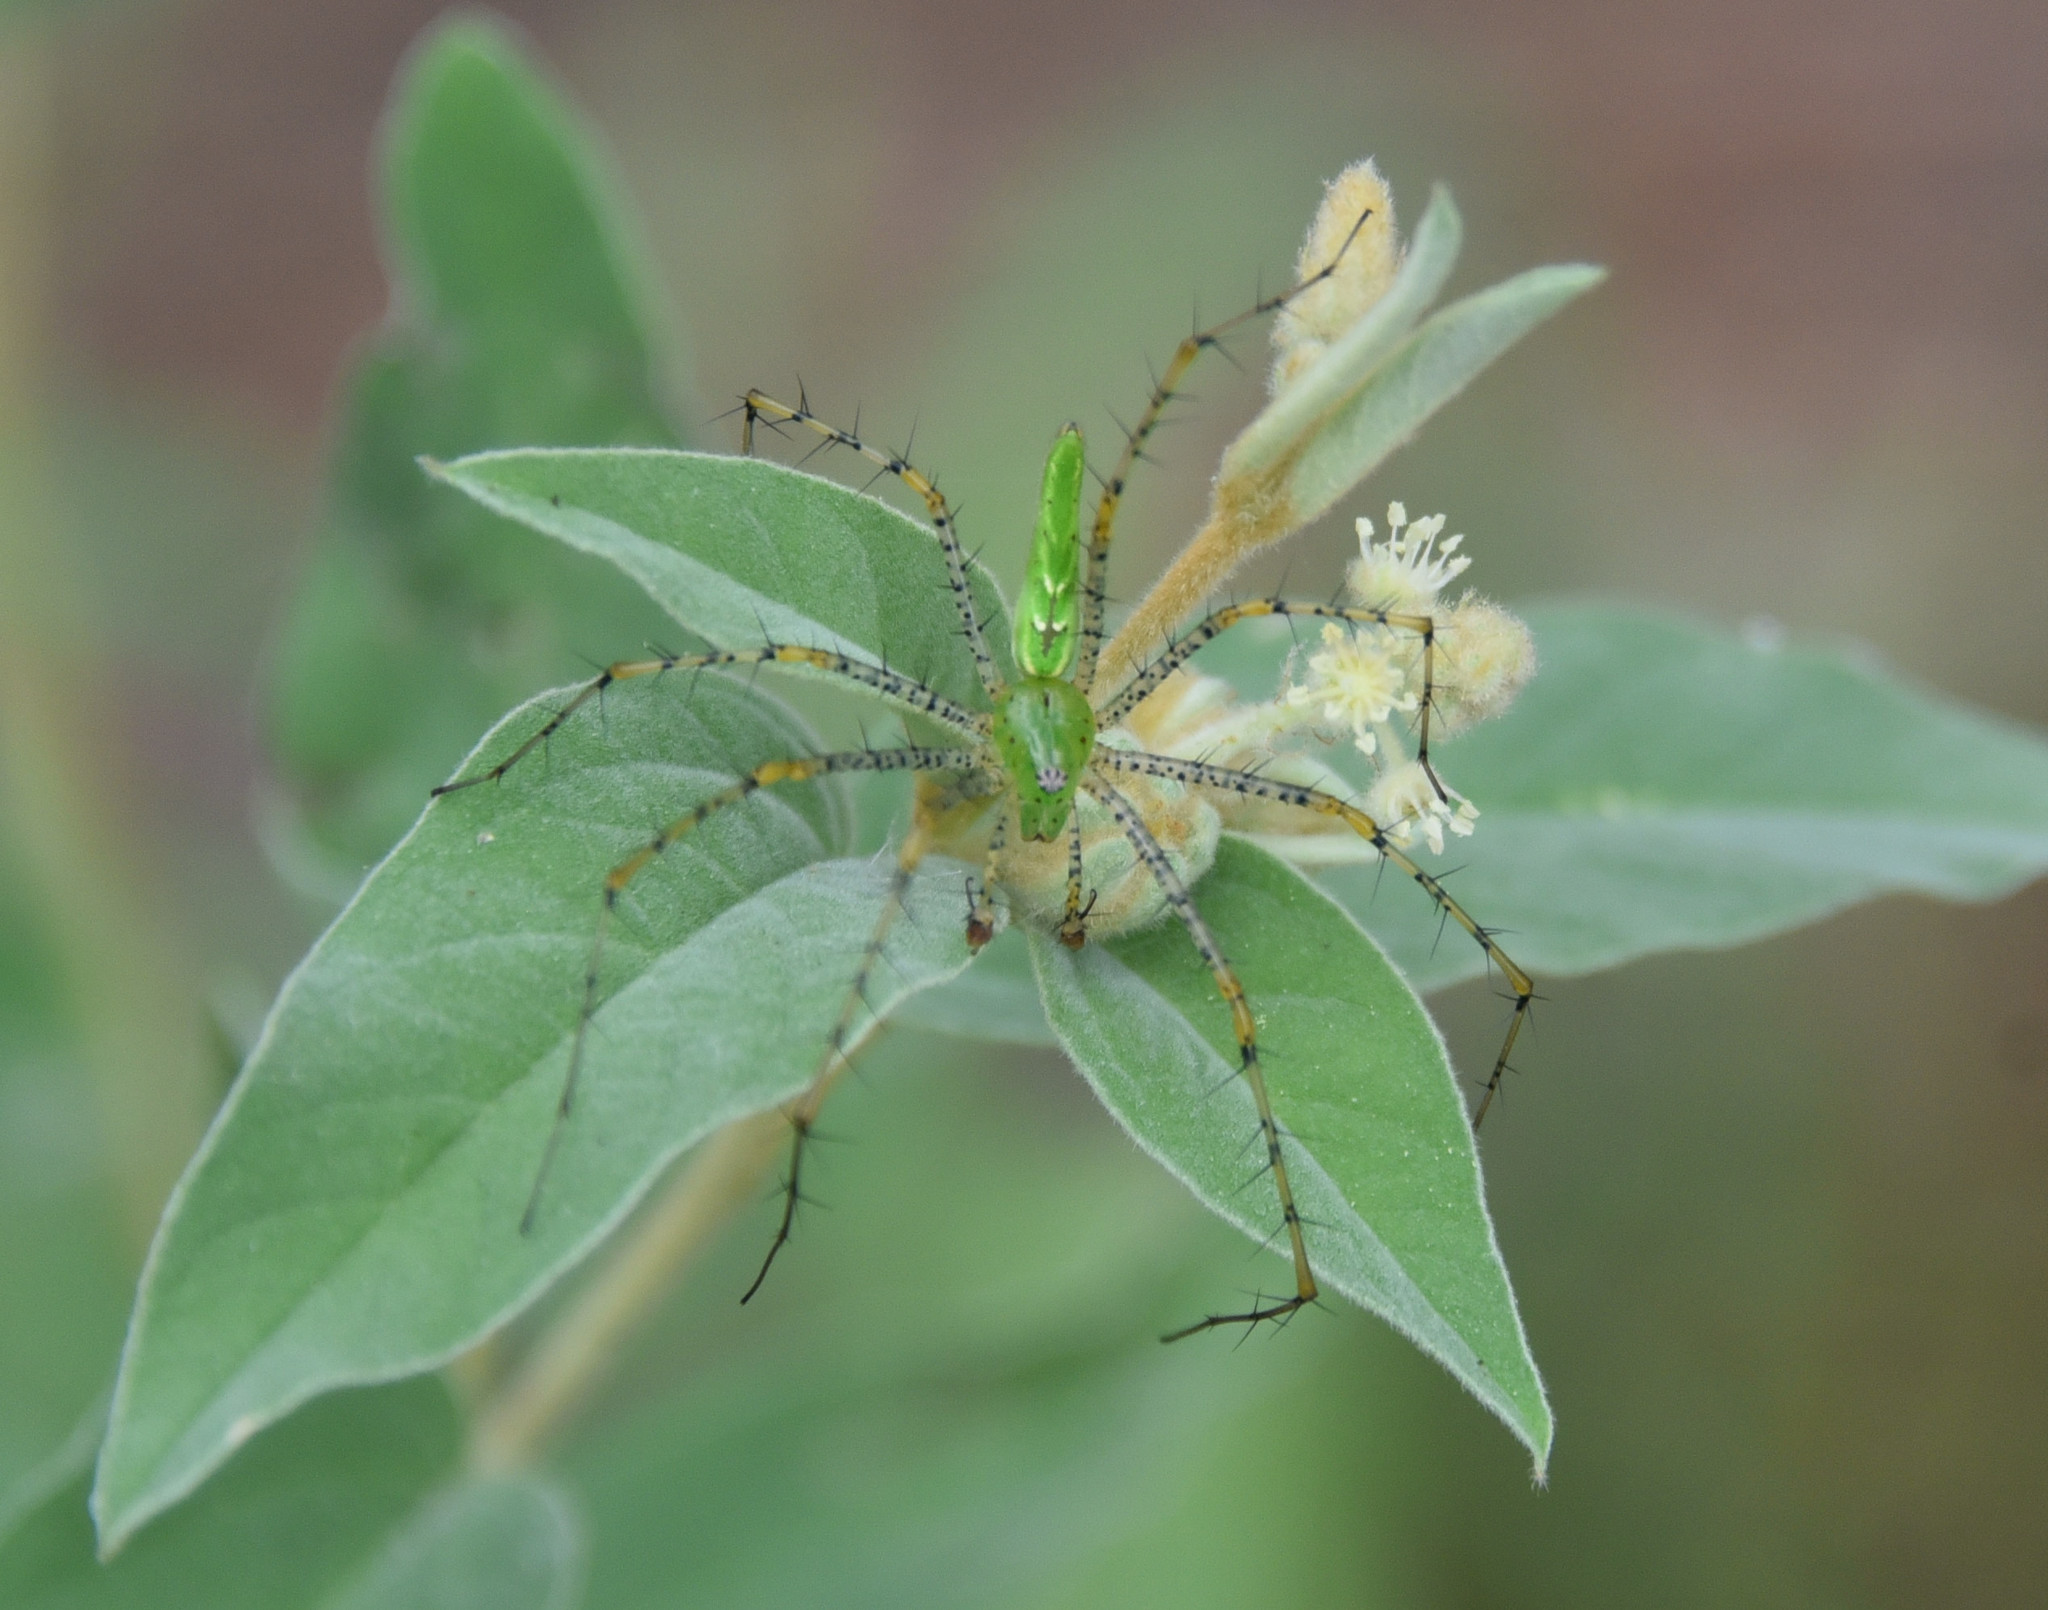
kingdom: Animalia
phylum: Arthropoda
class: Arachnida
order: Araneae
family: Oxyopidae
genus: Peucetia
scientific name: Peucetia viridans
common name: Lynx spiders
